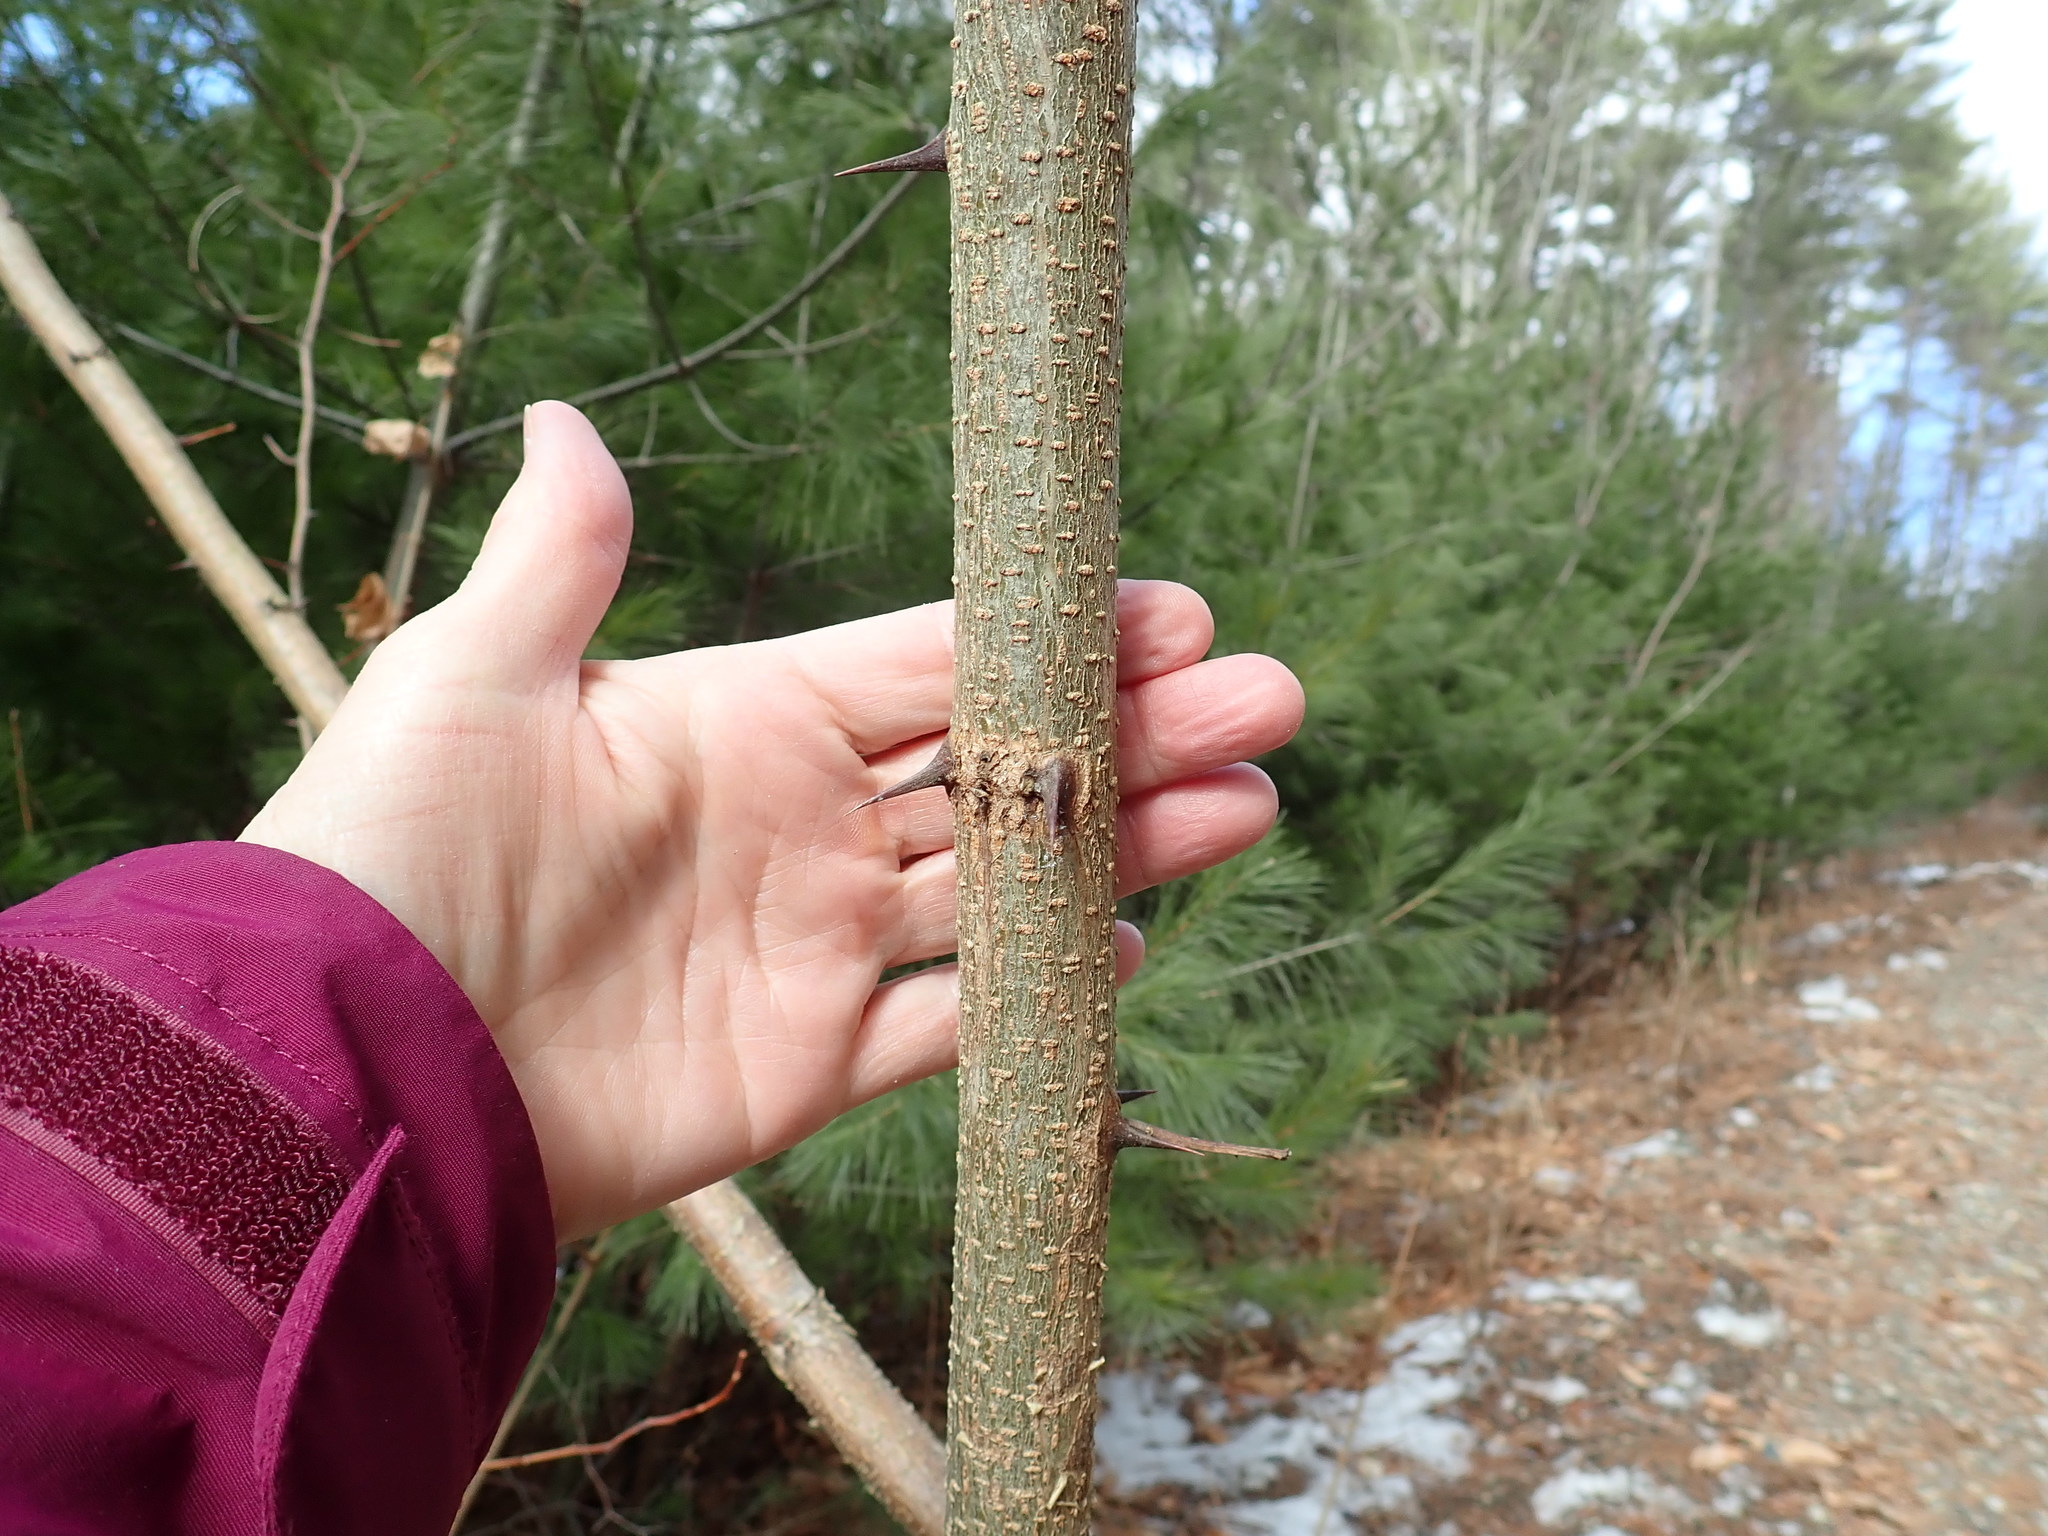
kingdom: Plantae
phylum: Tracheophyta
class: Magnoliopsida
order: Fabales
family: Fabaceae
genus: Robinia
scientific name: Robinia pseudoacacia
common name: Black locust
